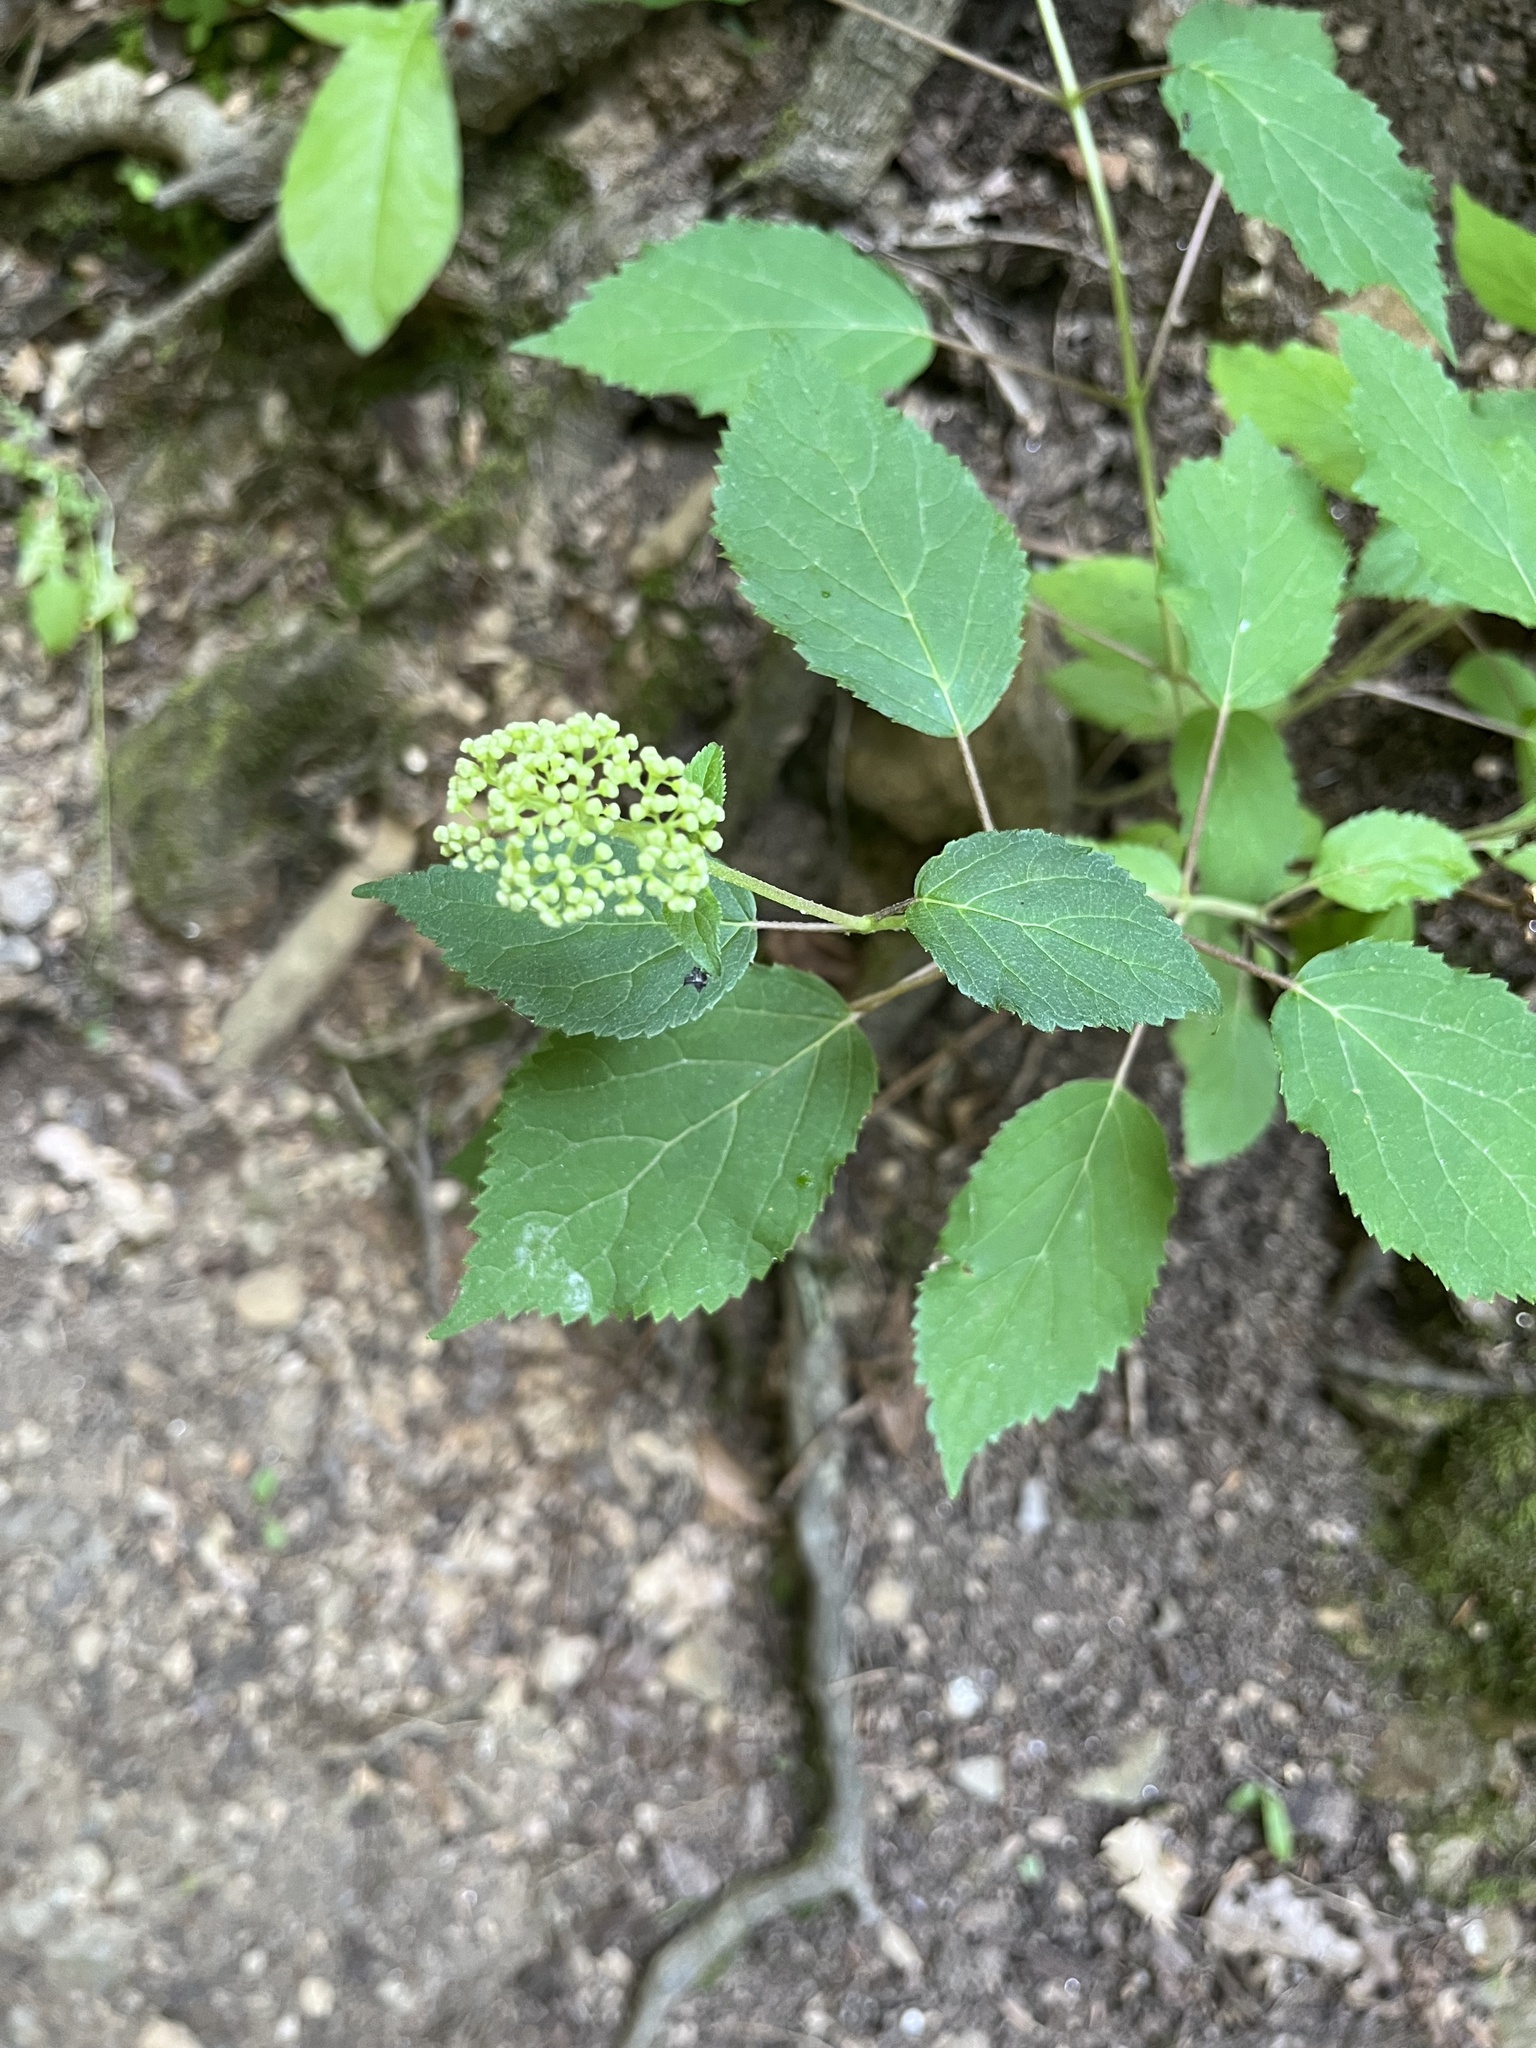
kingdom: Plantae
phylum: Tracheophyta
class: Magnoliopsida
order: Cornales
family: Hydrangeaceae
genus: Hydrangea
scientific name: Hydrangea arborescens
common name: Sevenbark
